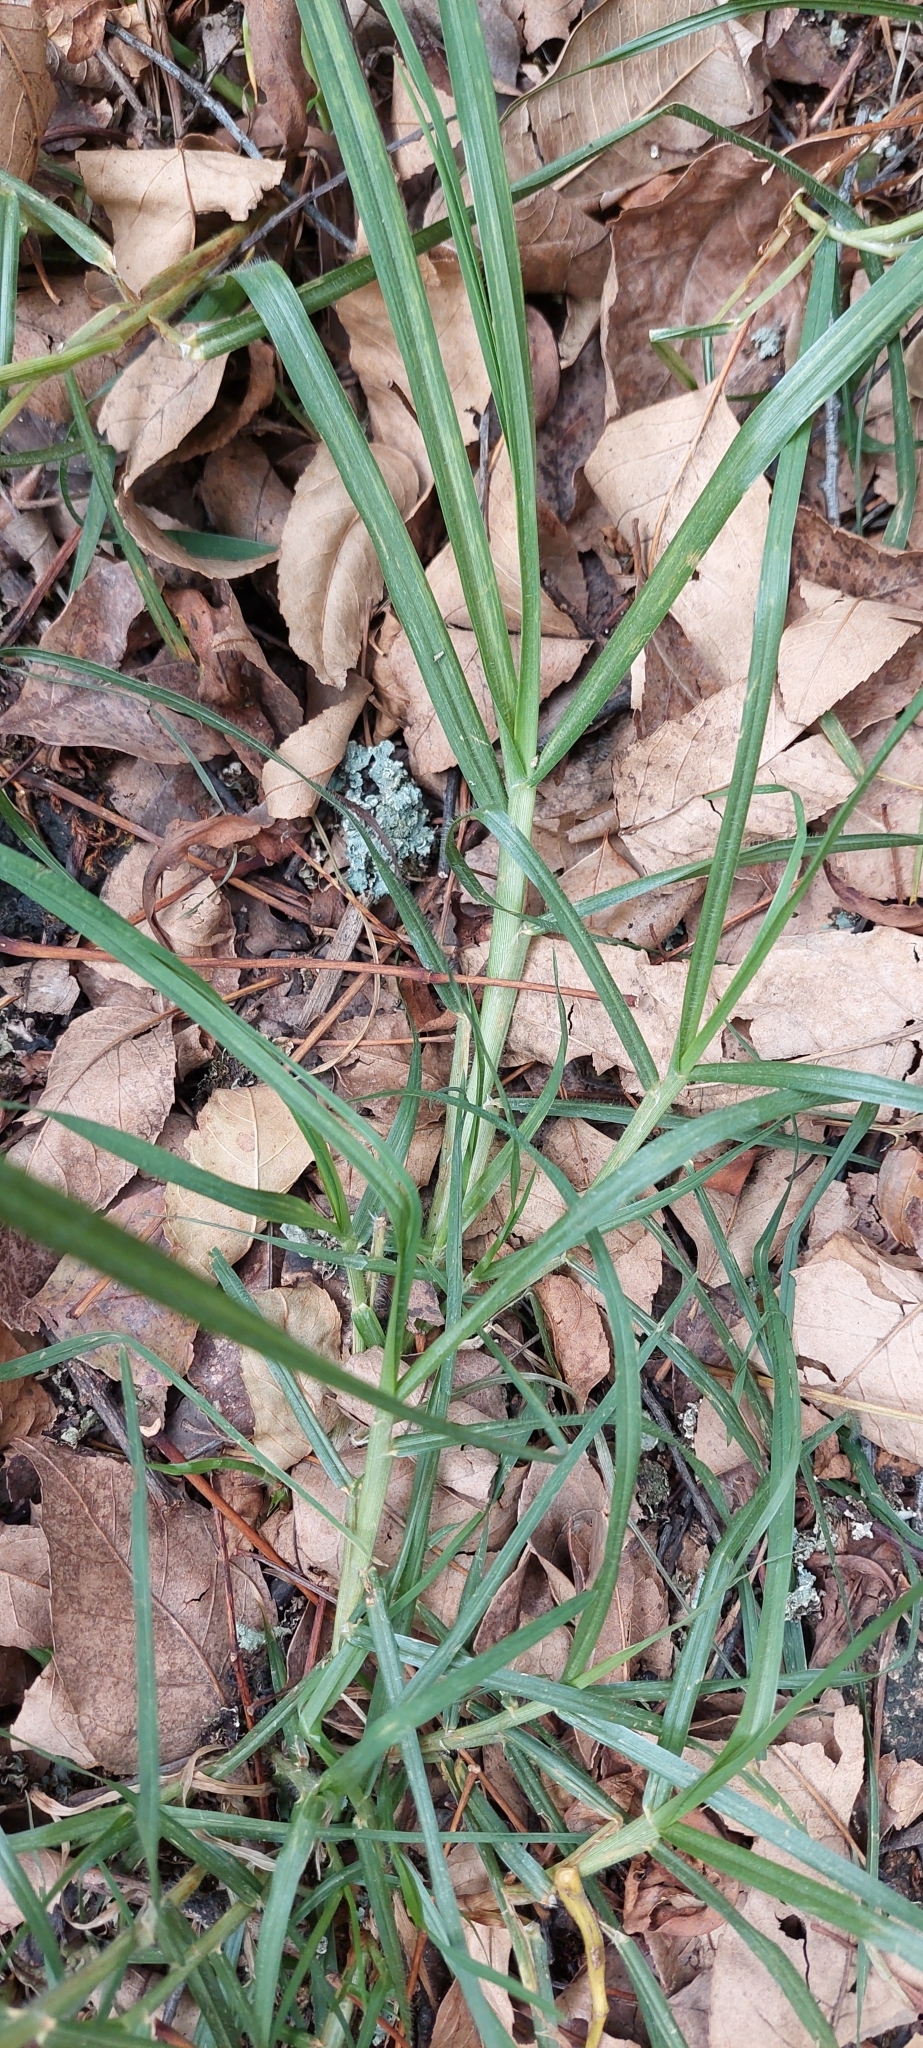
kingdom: Plantae
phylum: Tracheophyta
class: Liliopsida
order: Poales
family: Poaceae
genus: Cenchrus
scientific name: Cenchrus clandestinus
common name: Kikuyugrass
